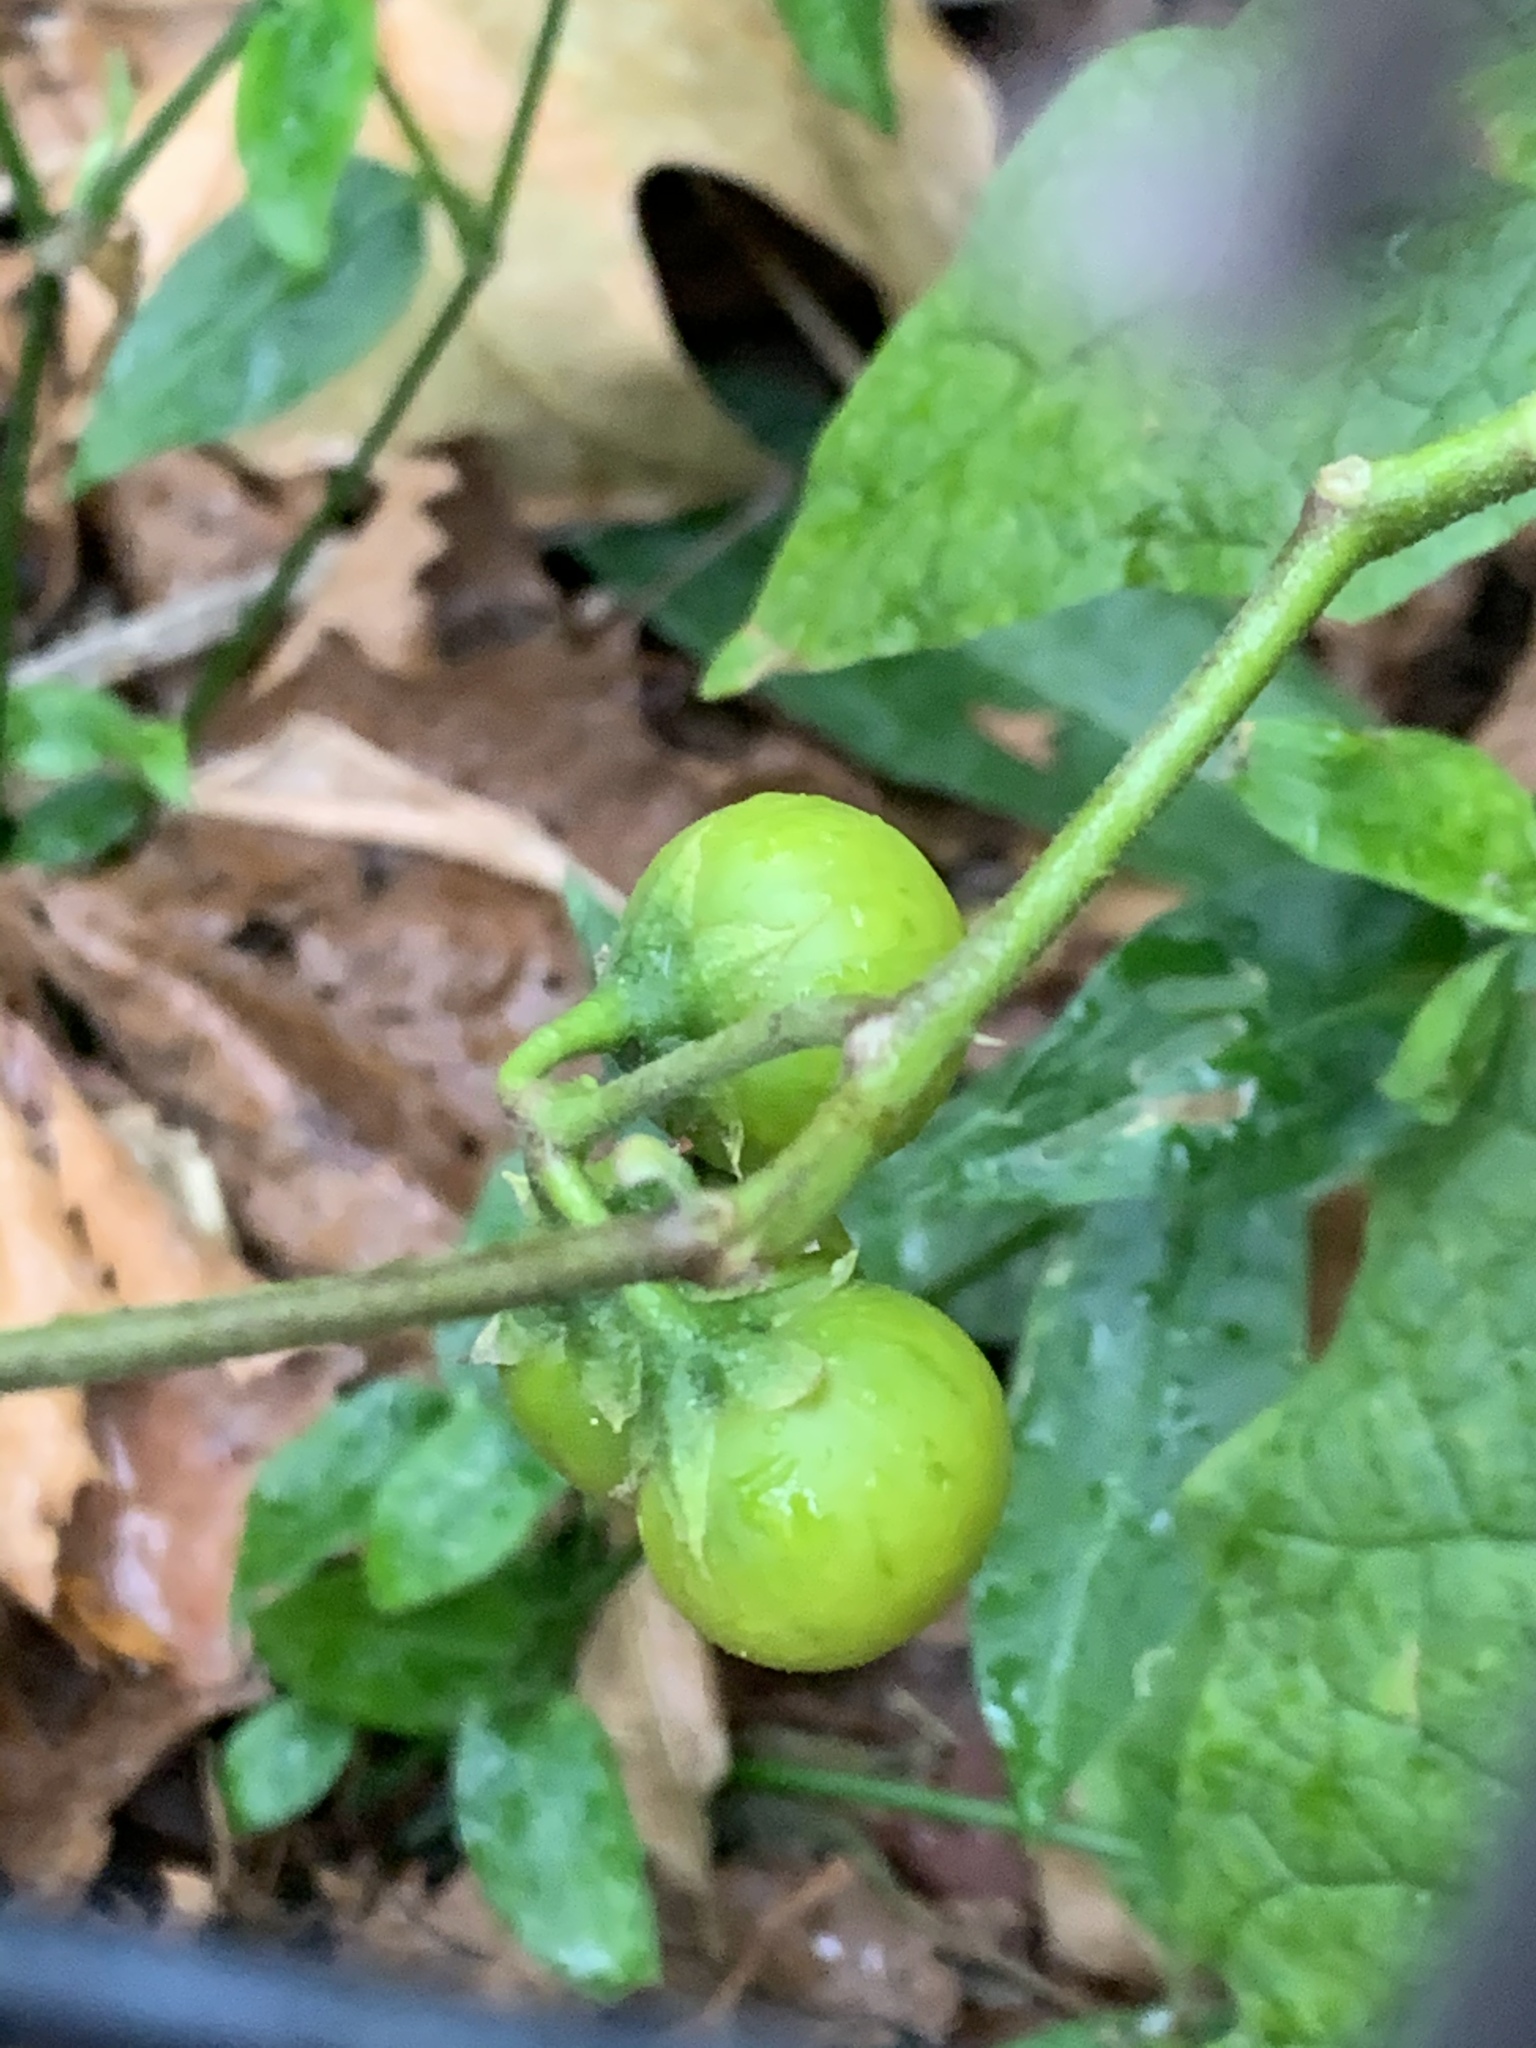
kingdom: Plantae
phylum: Tracheophyta
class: Magnoliopsida
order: Solanales
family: Solanaceae
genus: Solanum
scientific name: Solanum carolinense
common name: Horse-nettle
